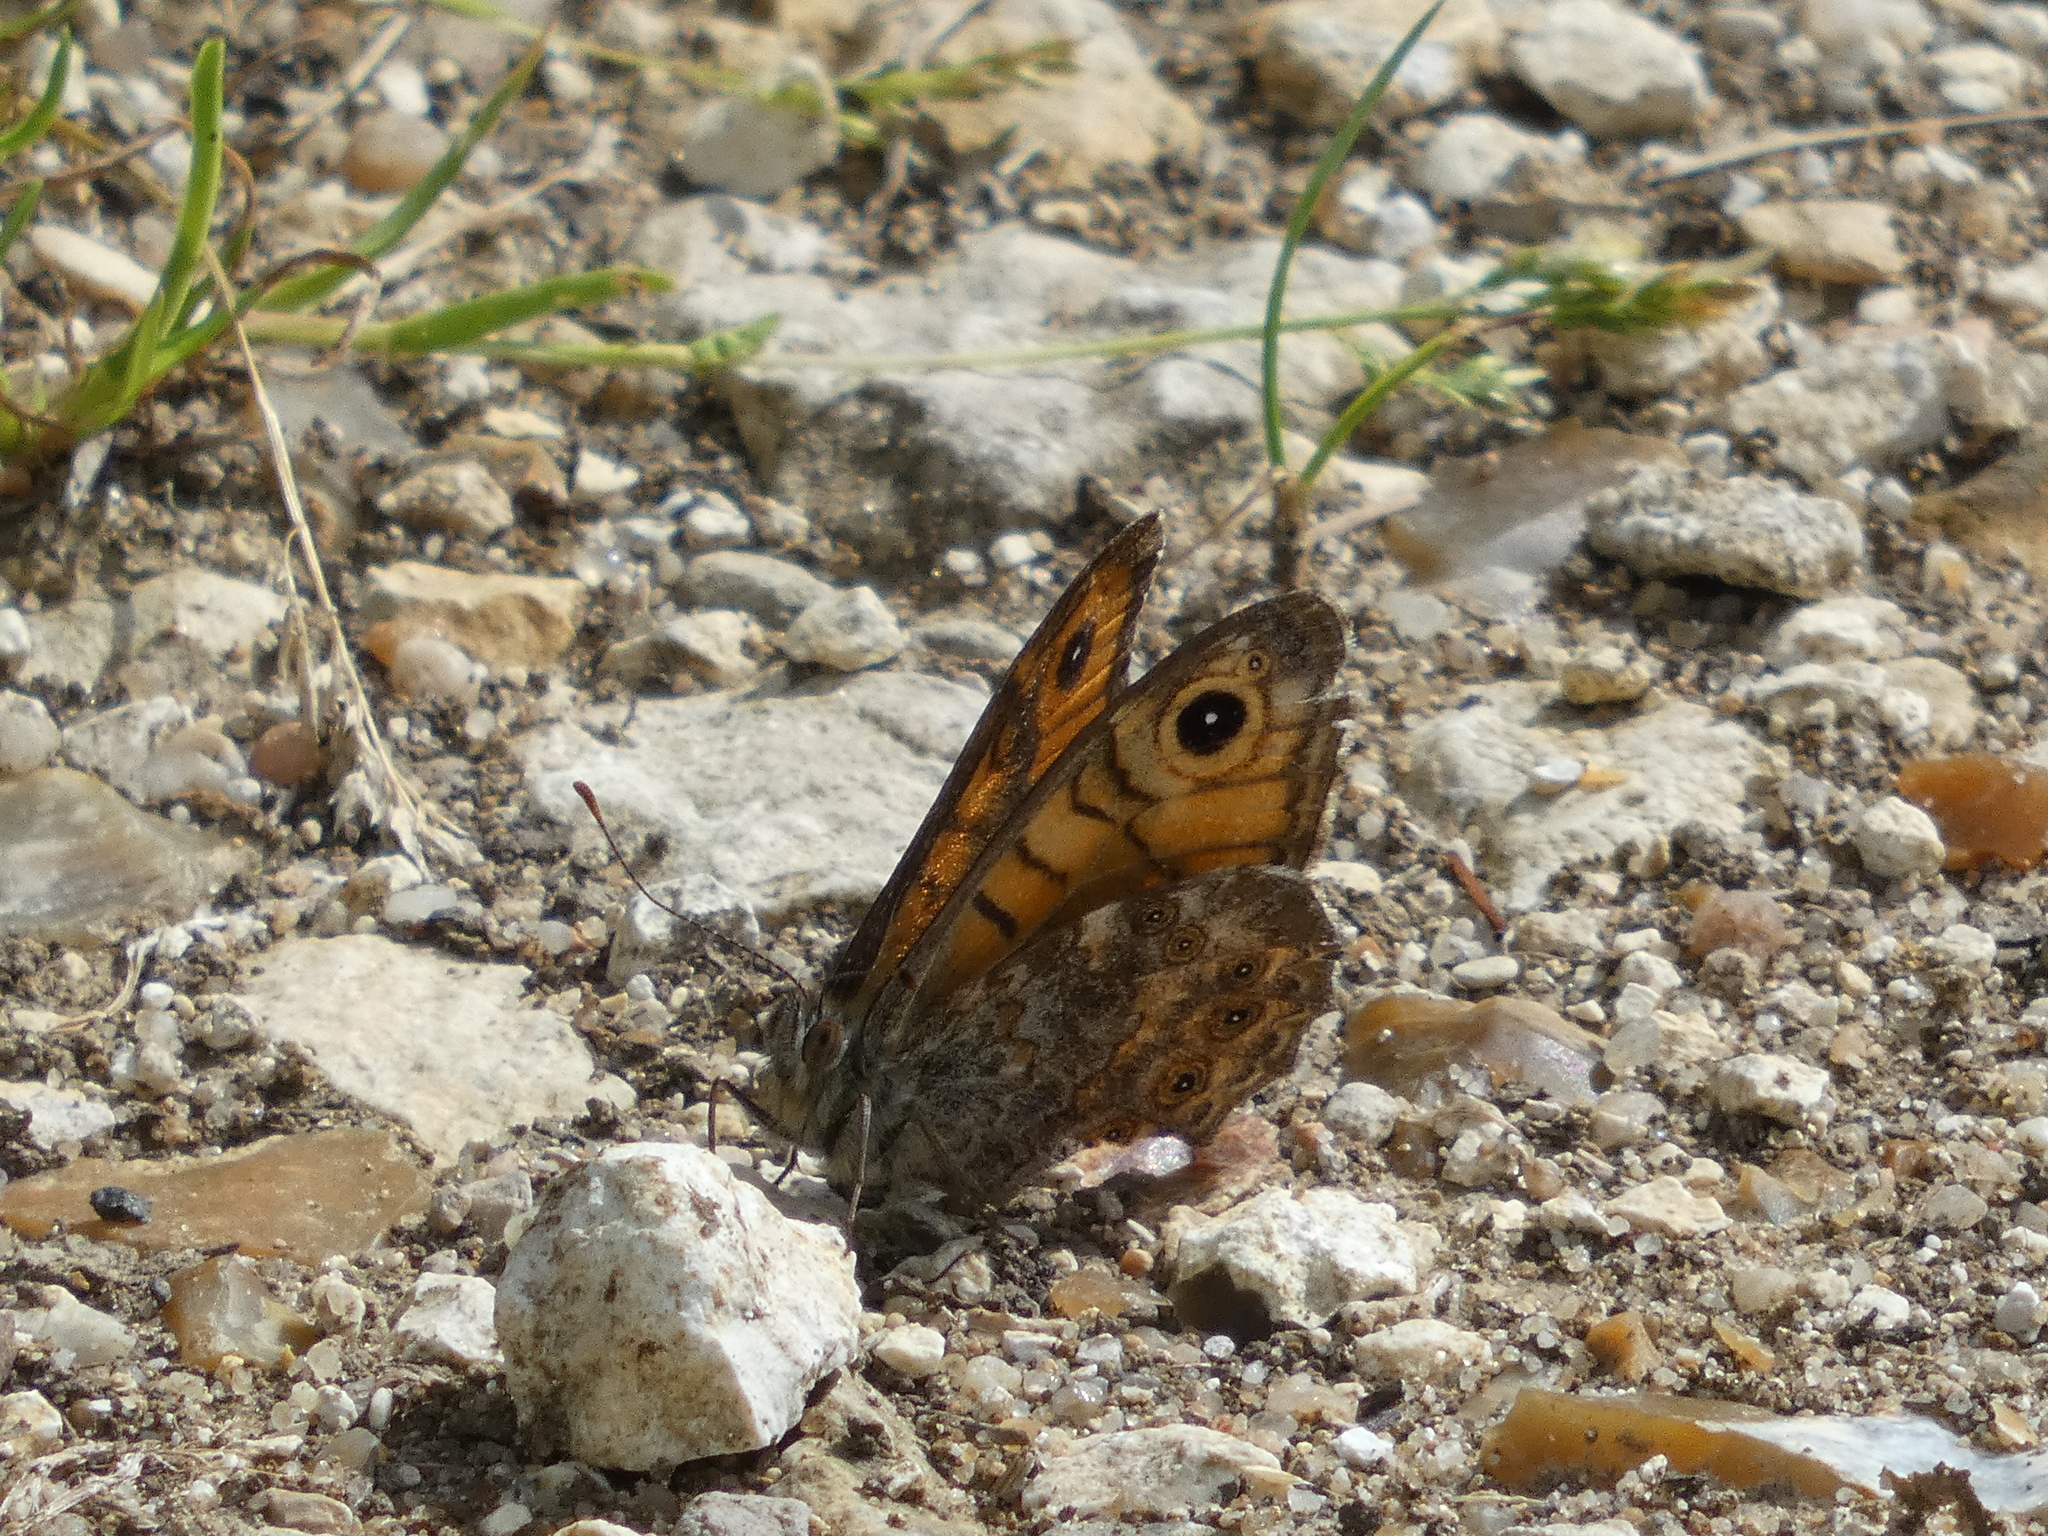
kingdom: Animalia
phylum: Arthropoda
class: Insecta
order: Lepidoptera
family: Nymphalidae
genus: Pararge
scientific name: Pararge Lasiommata megera
